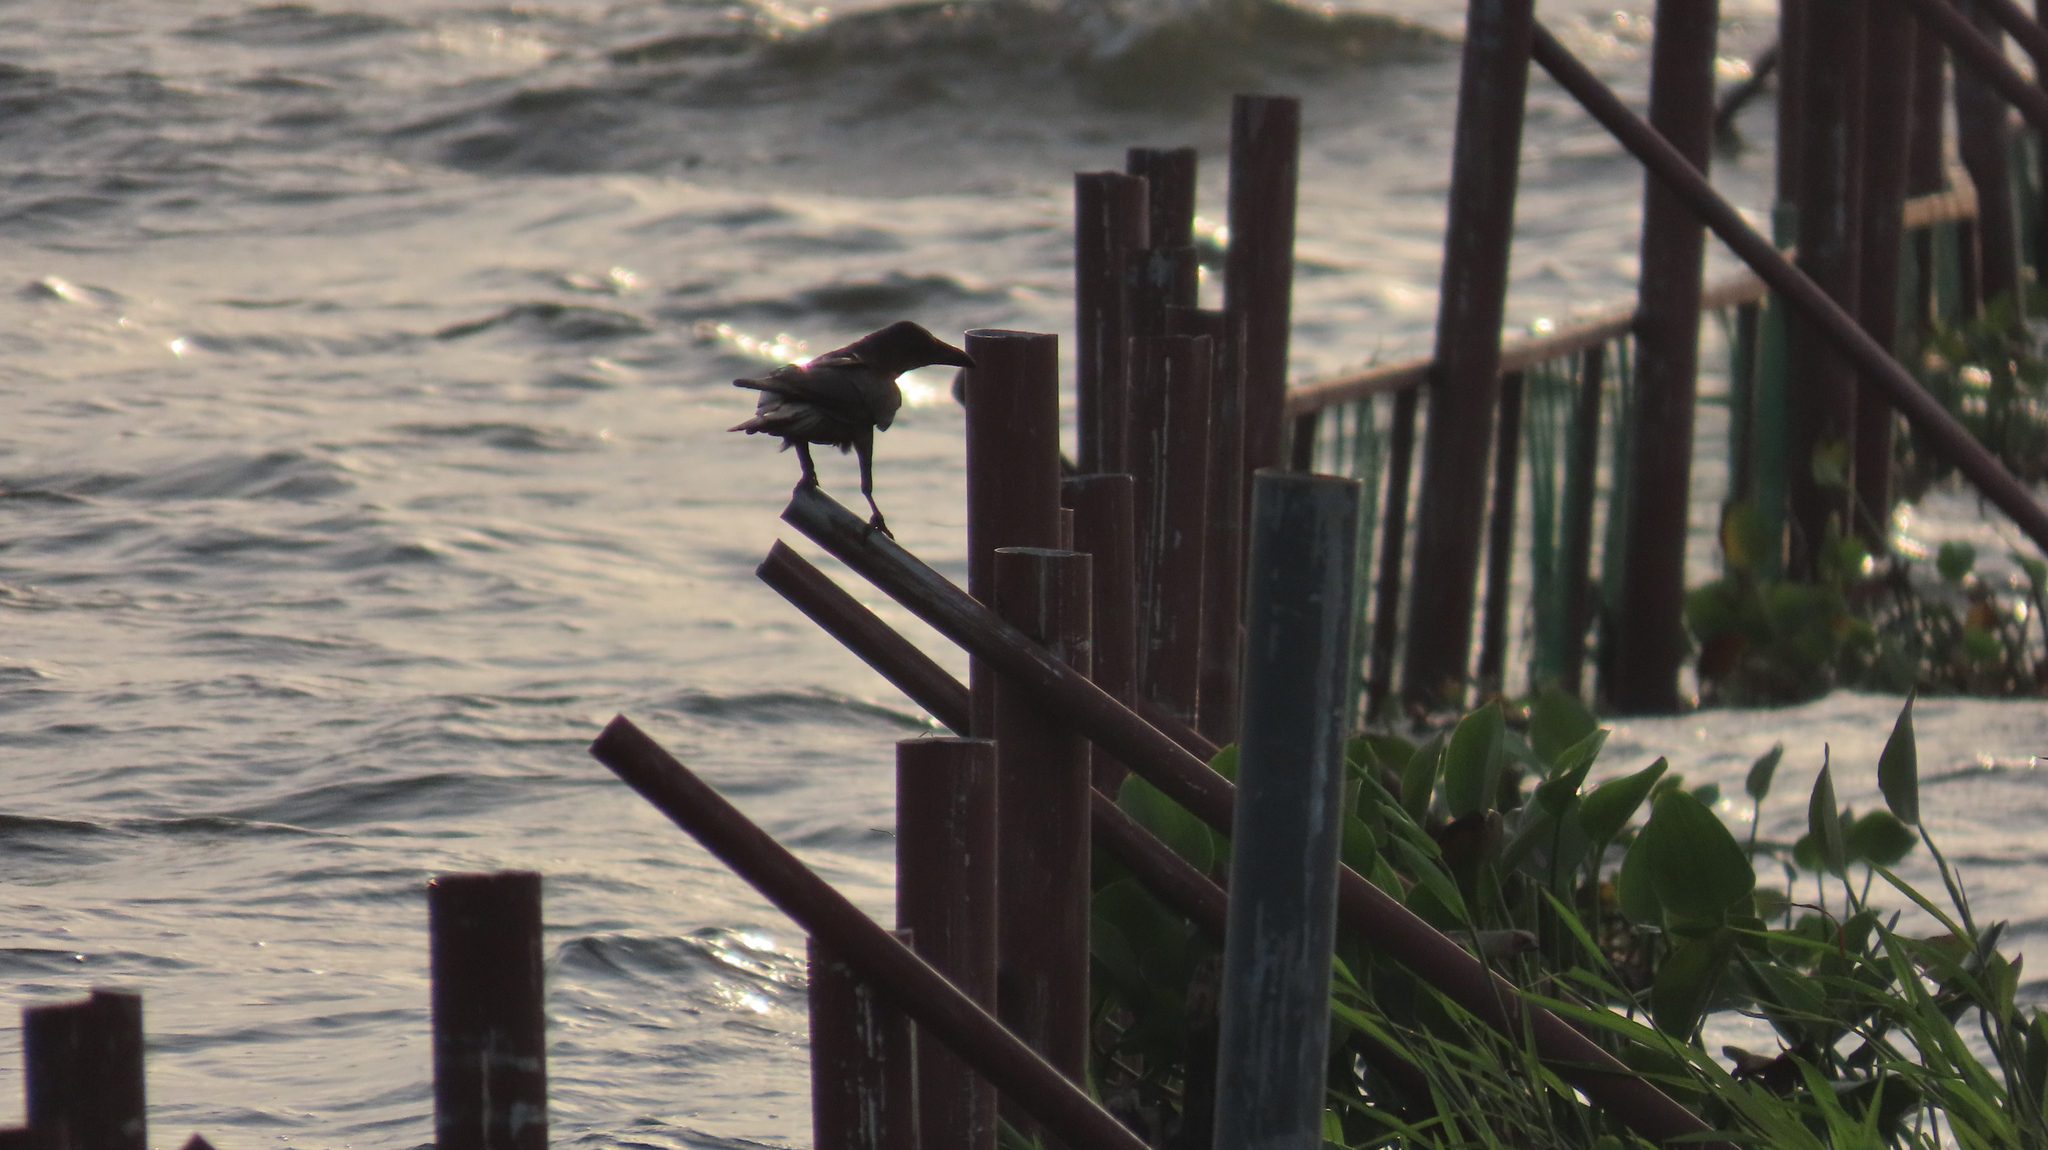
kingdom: Animalia
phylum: Chordata
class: Aves
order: Passeriformes
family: Corvidae
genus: Corvus
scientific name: Corvus splendens
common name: House crow
